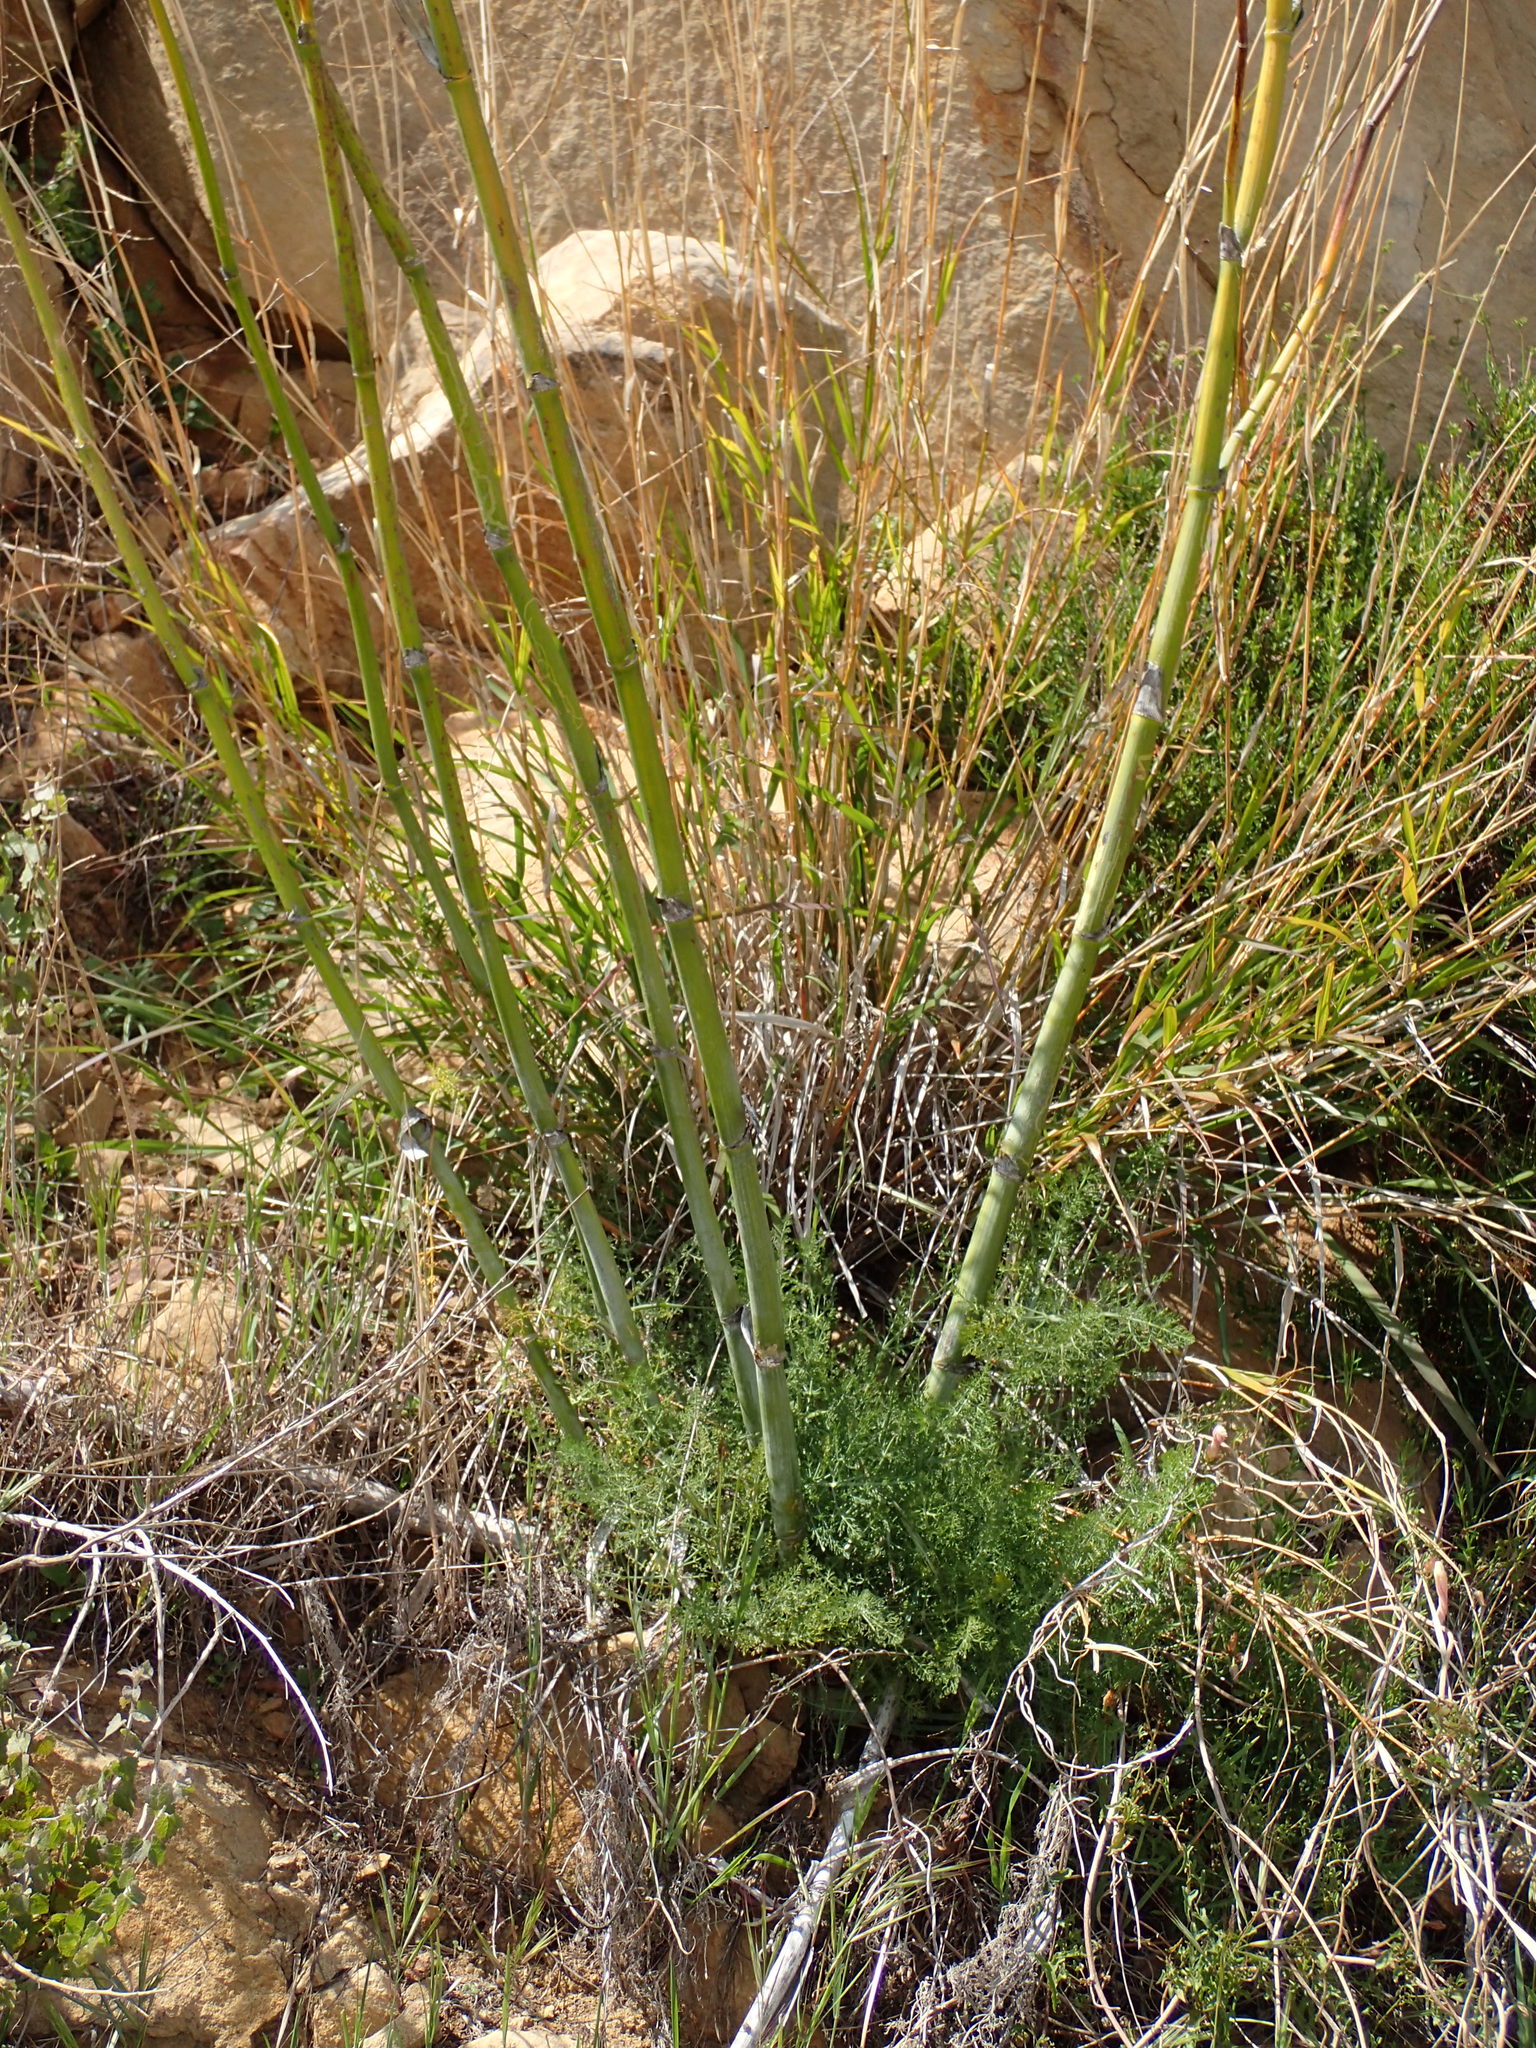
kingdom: Plantae
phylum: Tracheophyta
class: Magnoliopsida
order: Apiales
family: Apiaceae
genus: Foeniculum
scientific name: Foeniculum vulgare
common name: Fennel
